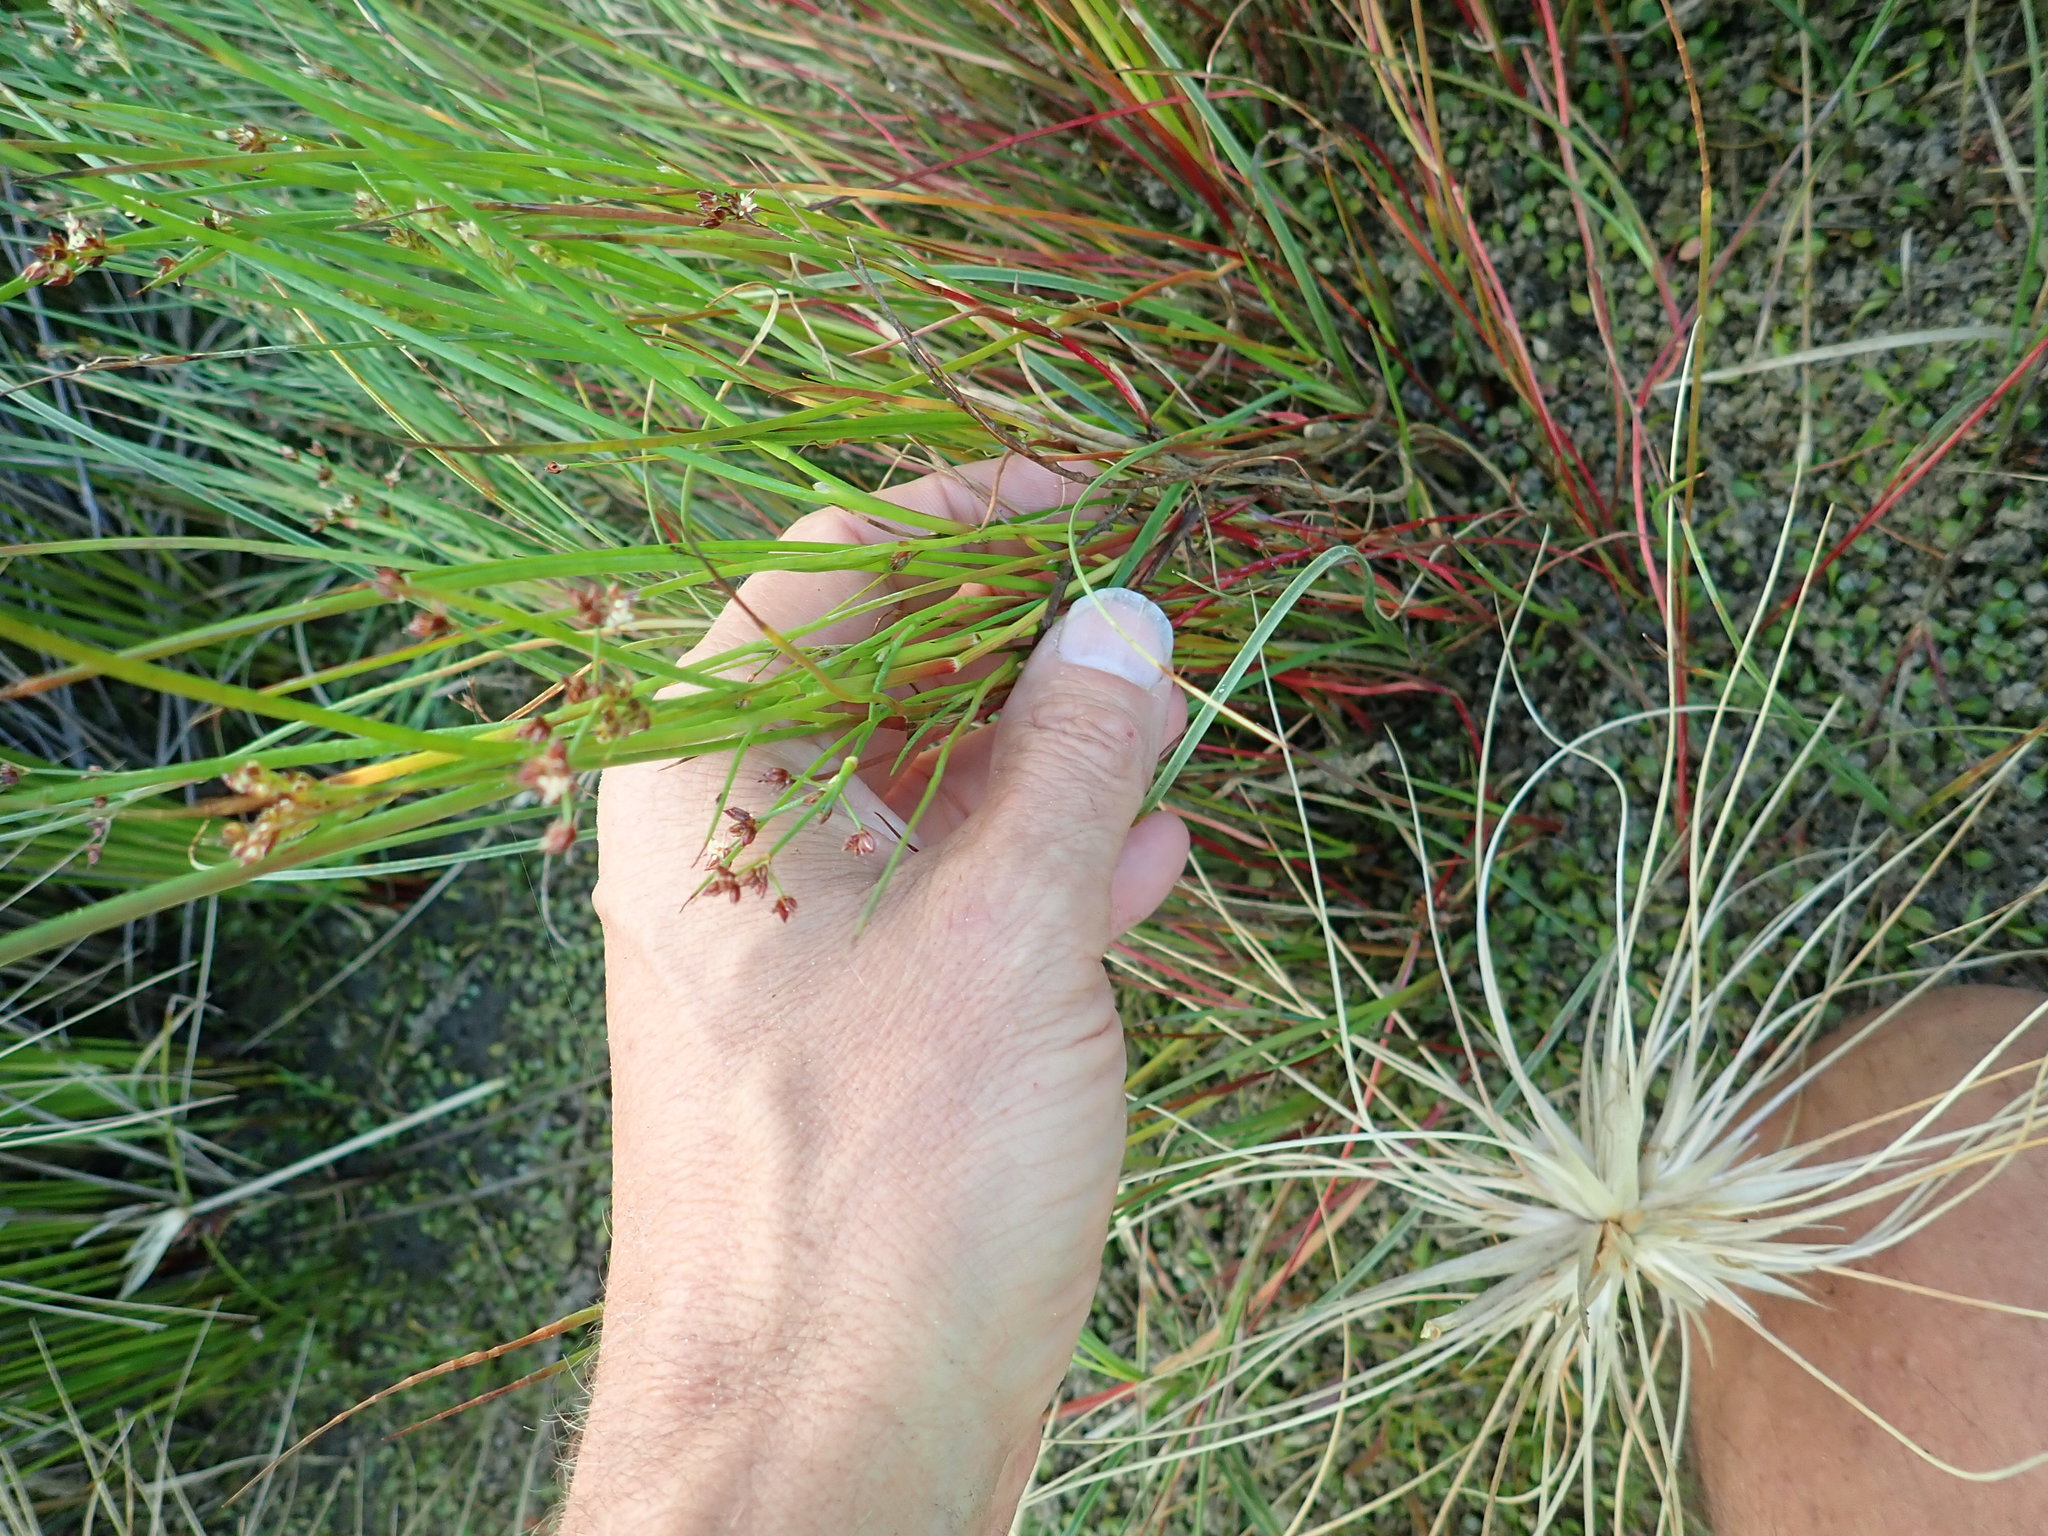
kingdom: Plantae
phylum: Tracheophyta
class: Liliopsida
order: Poales
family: Juncaceae
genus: Juncus
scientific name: Juncus articulatus
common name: Jointed rush
